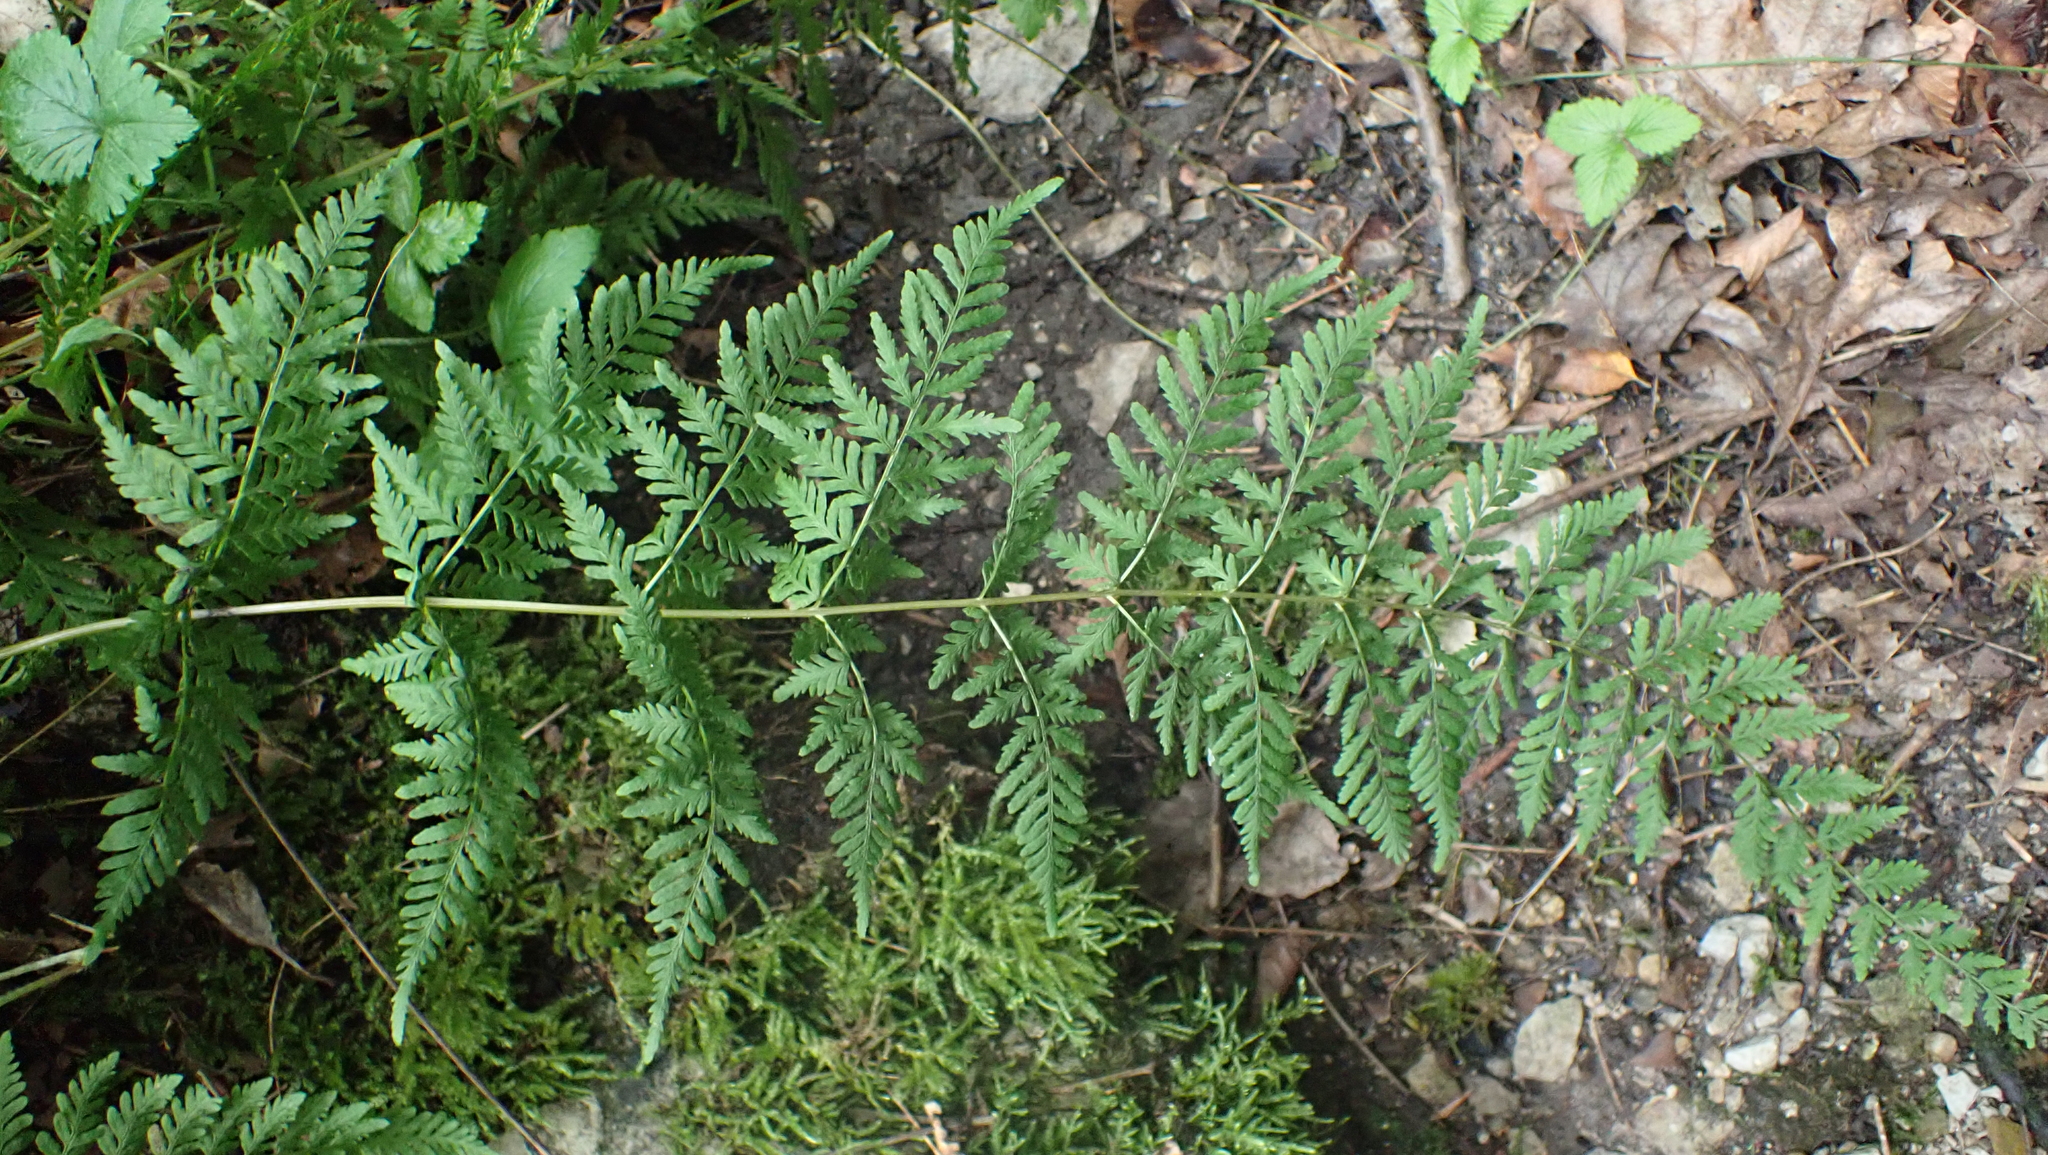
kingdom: Plantae
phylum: Tracheophyta
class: Polypodiopsida
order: Polypodiales
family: Thelypteridaceae
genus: Macrothelypteris
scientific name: Macrothelypteris torresiana
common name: Swordfern
